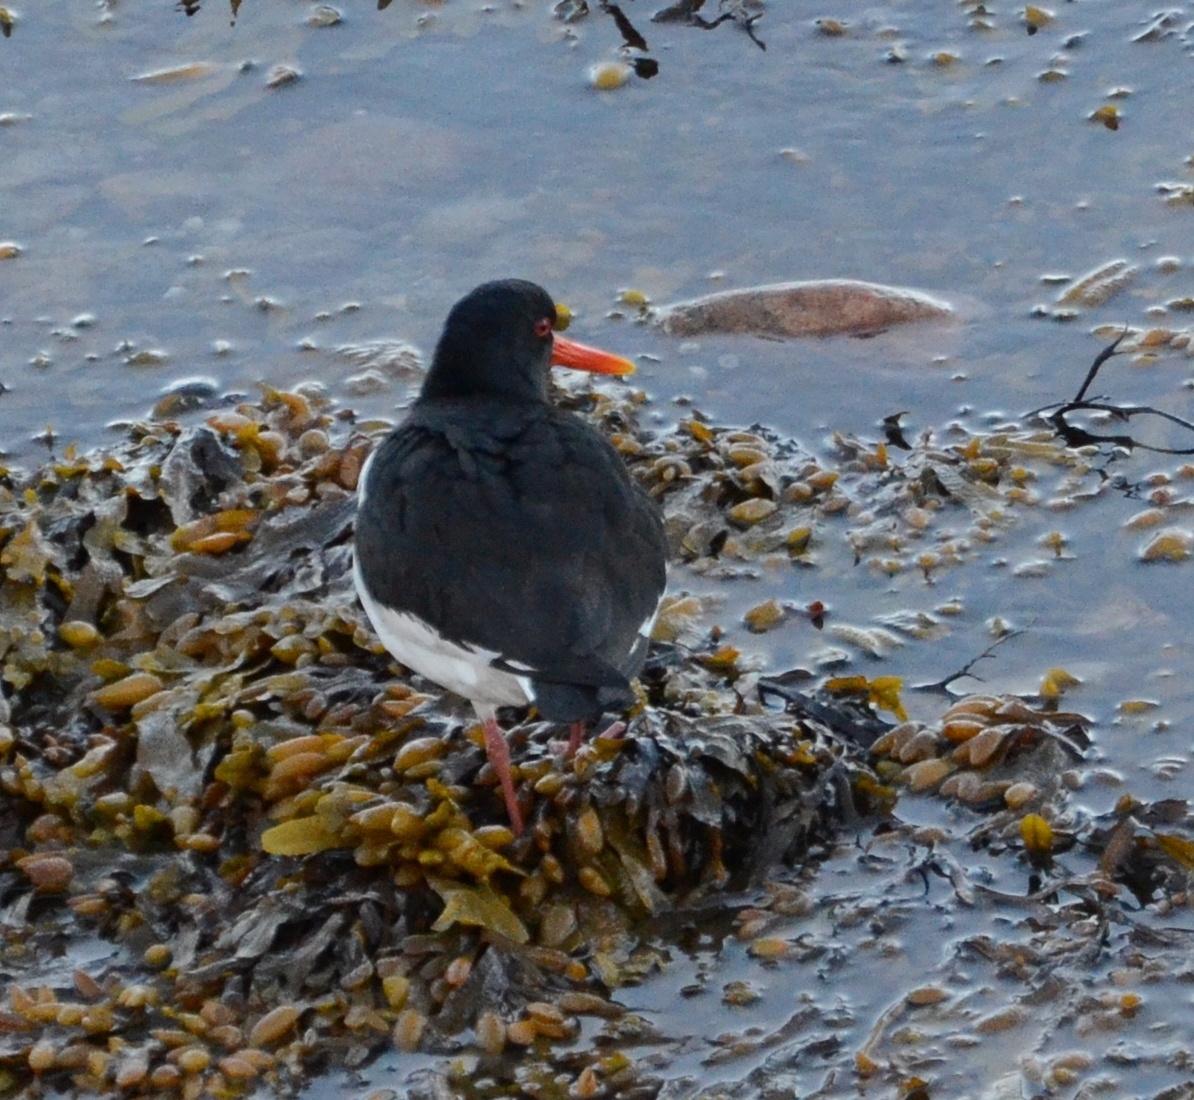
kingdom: Animalia
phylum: Chordata
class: Aves
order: Charadriiformes
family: Haematopodidae
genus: Haematopus
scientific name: Haematopus ostralegus
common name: Eurasian oystercatcher
